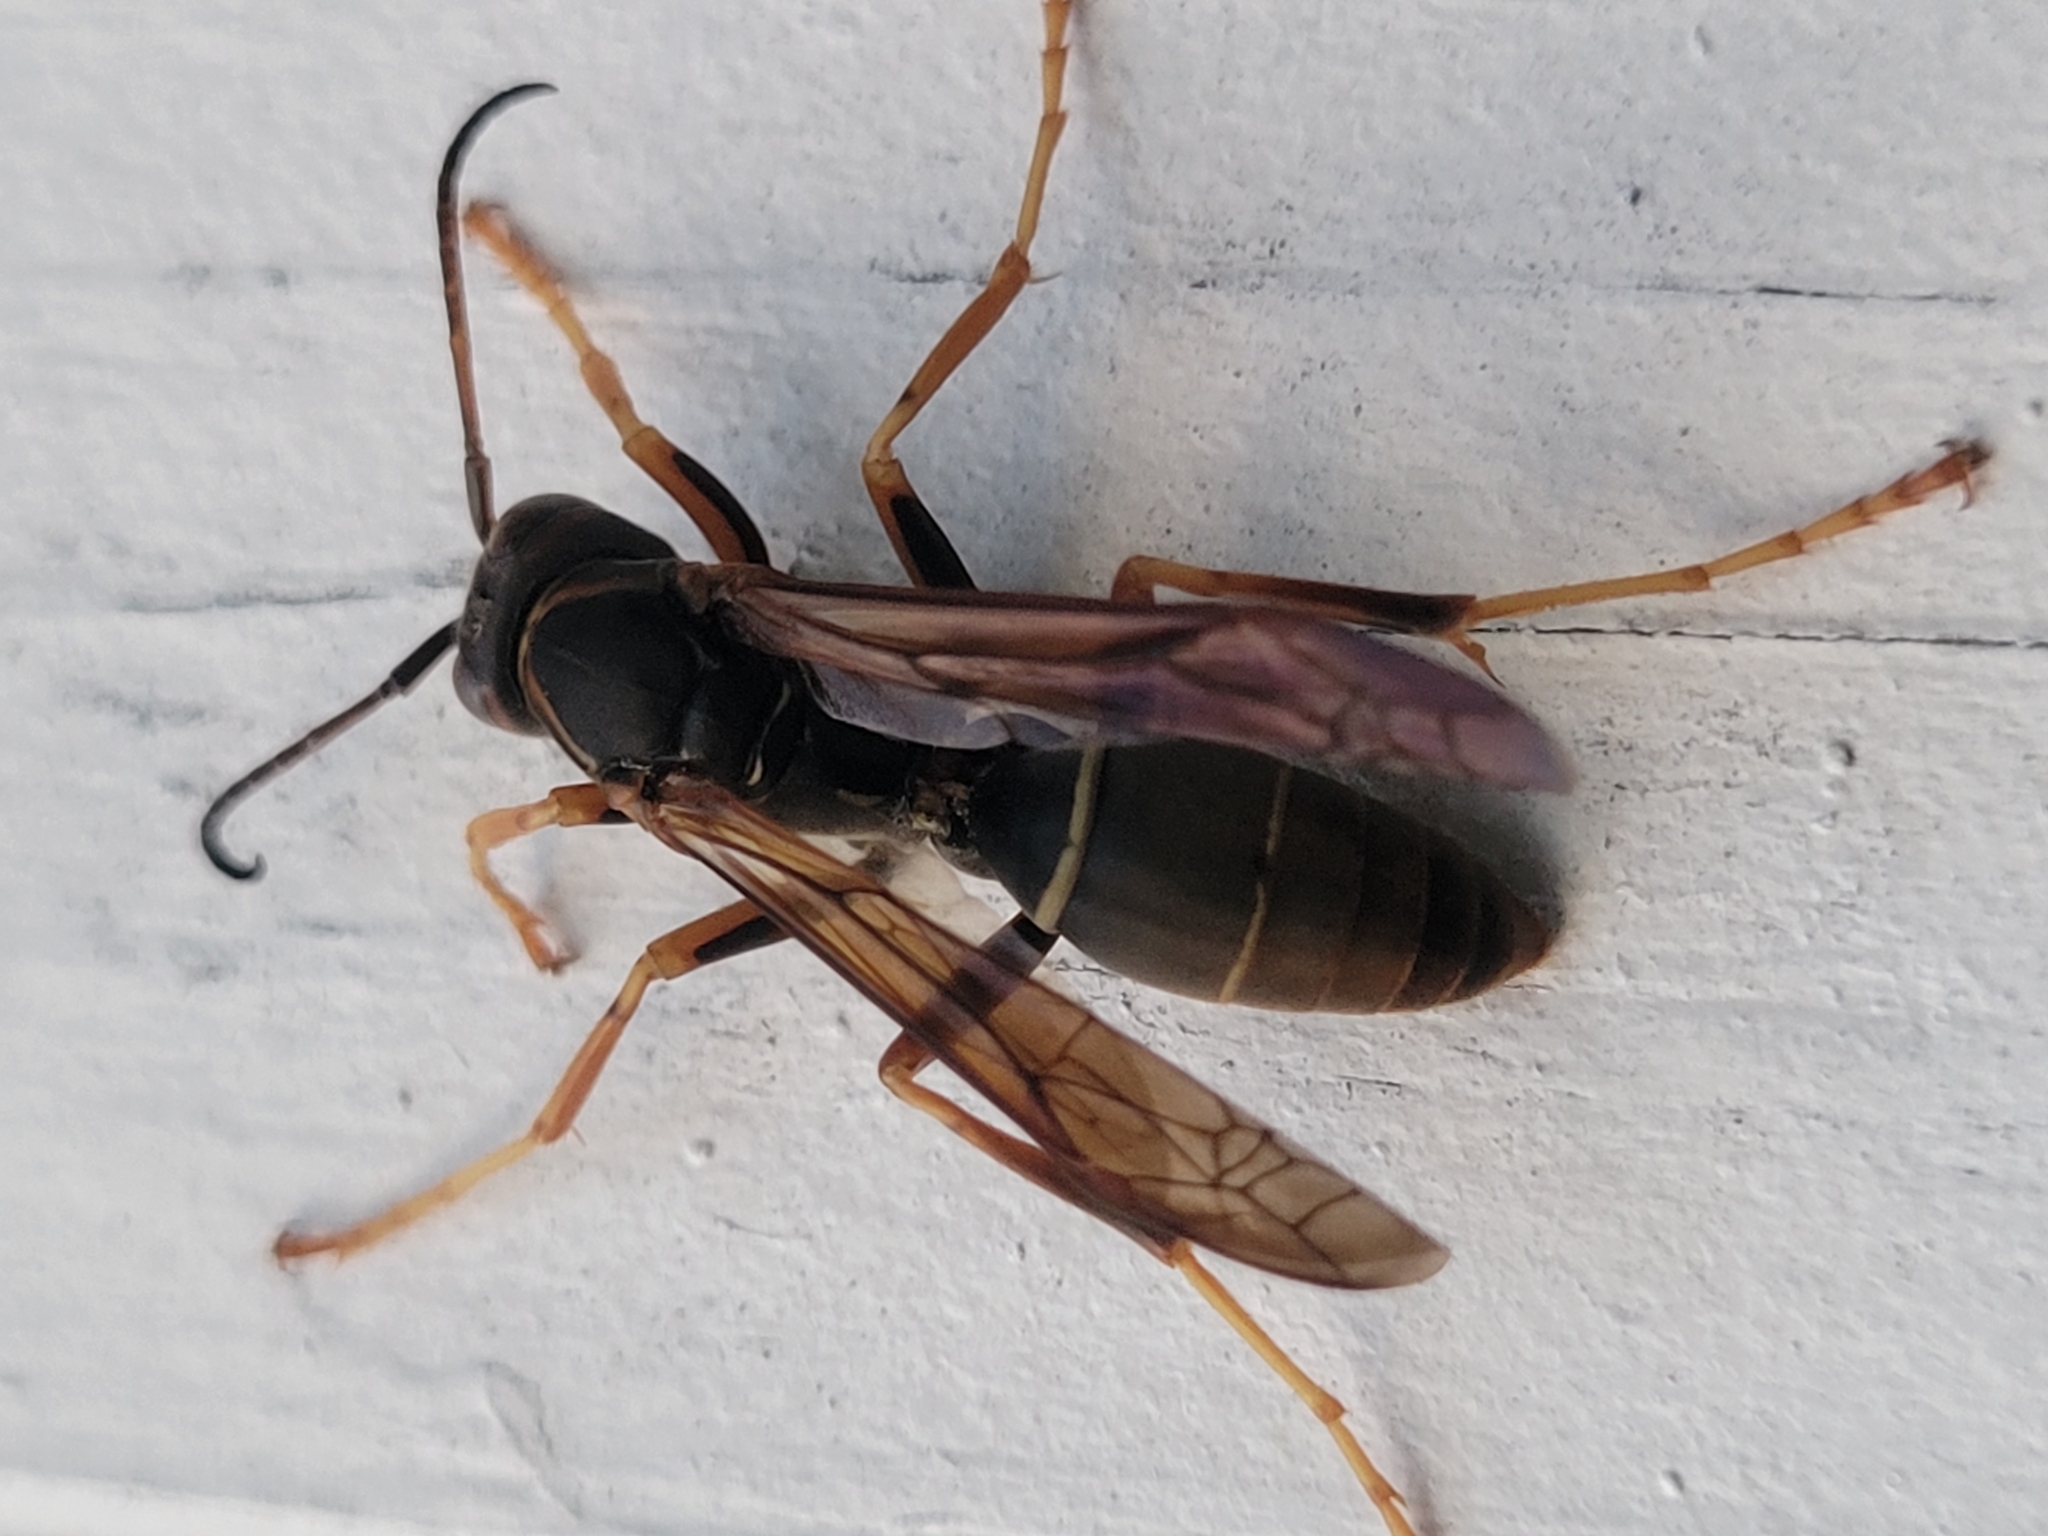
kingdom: Animalia
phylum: Arthropoda
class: Insecta
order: Hymenoptera
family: Eumenidae
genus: Polistes
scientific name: Polistes fuscatus
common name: Dark paper wasp
